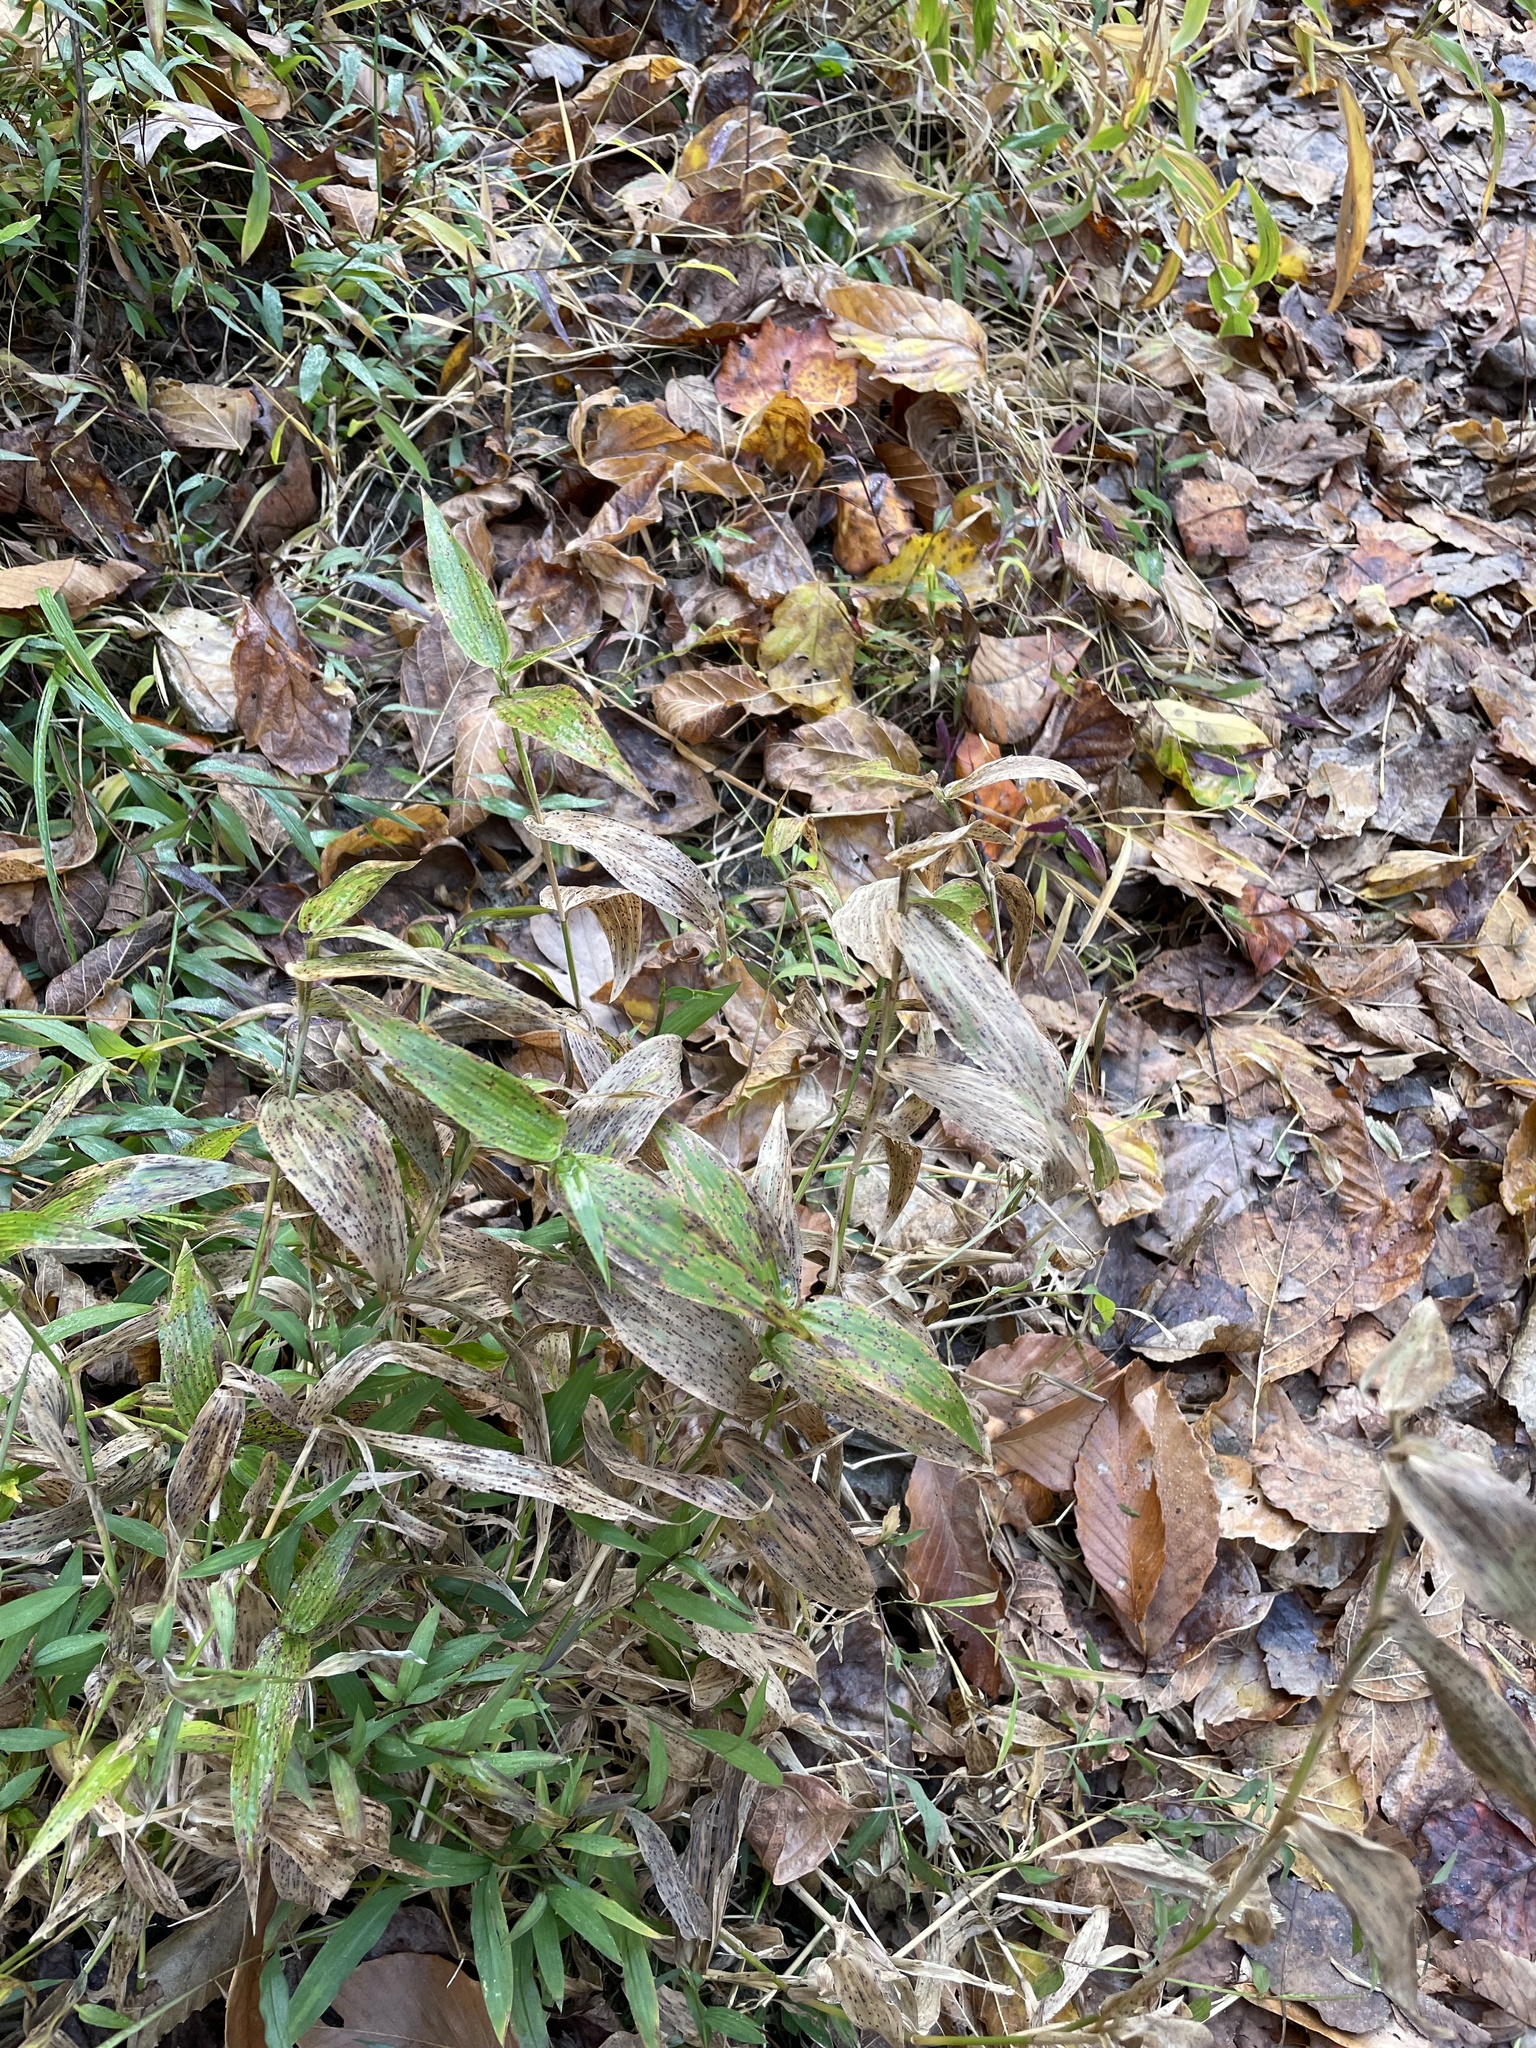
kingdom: Plantae
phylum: Tracheophyta
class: Liliopsida
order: Poales
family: Poaceae
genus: Dichanthelium
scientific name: Dichanthelium clandestinum
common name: Deer-tongue grass
